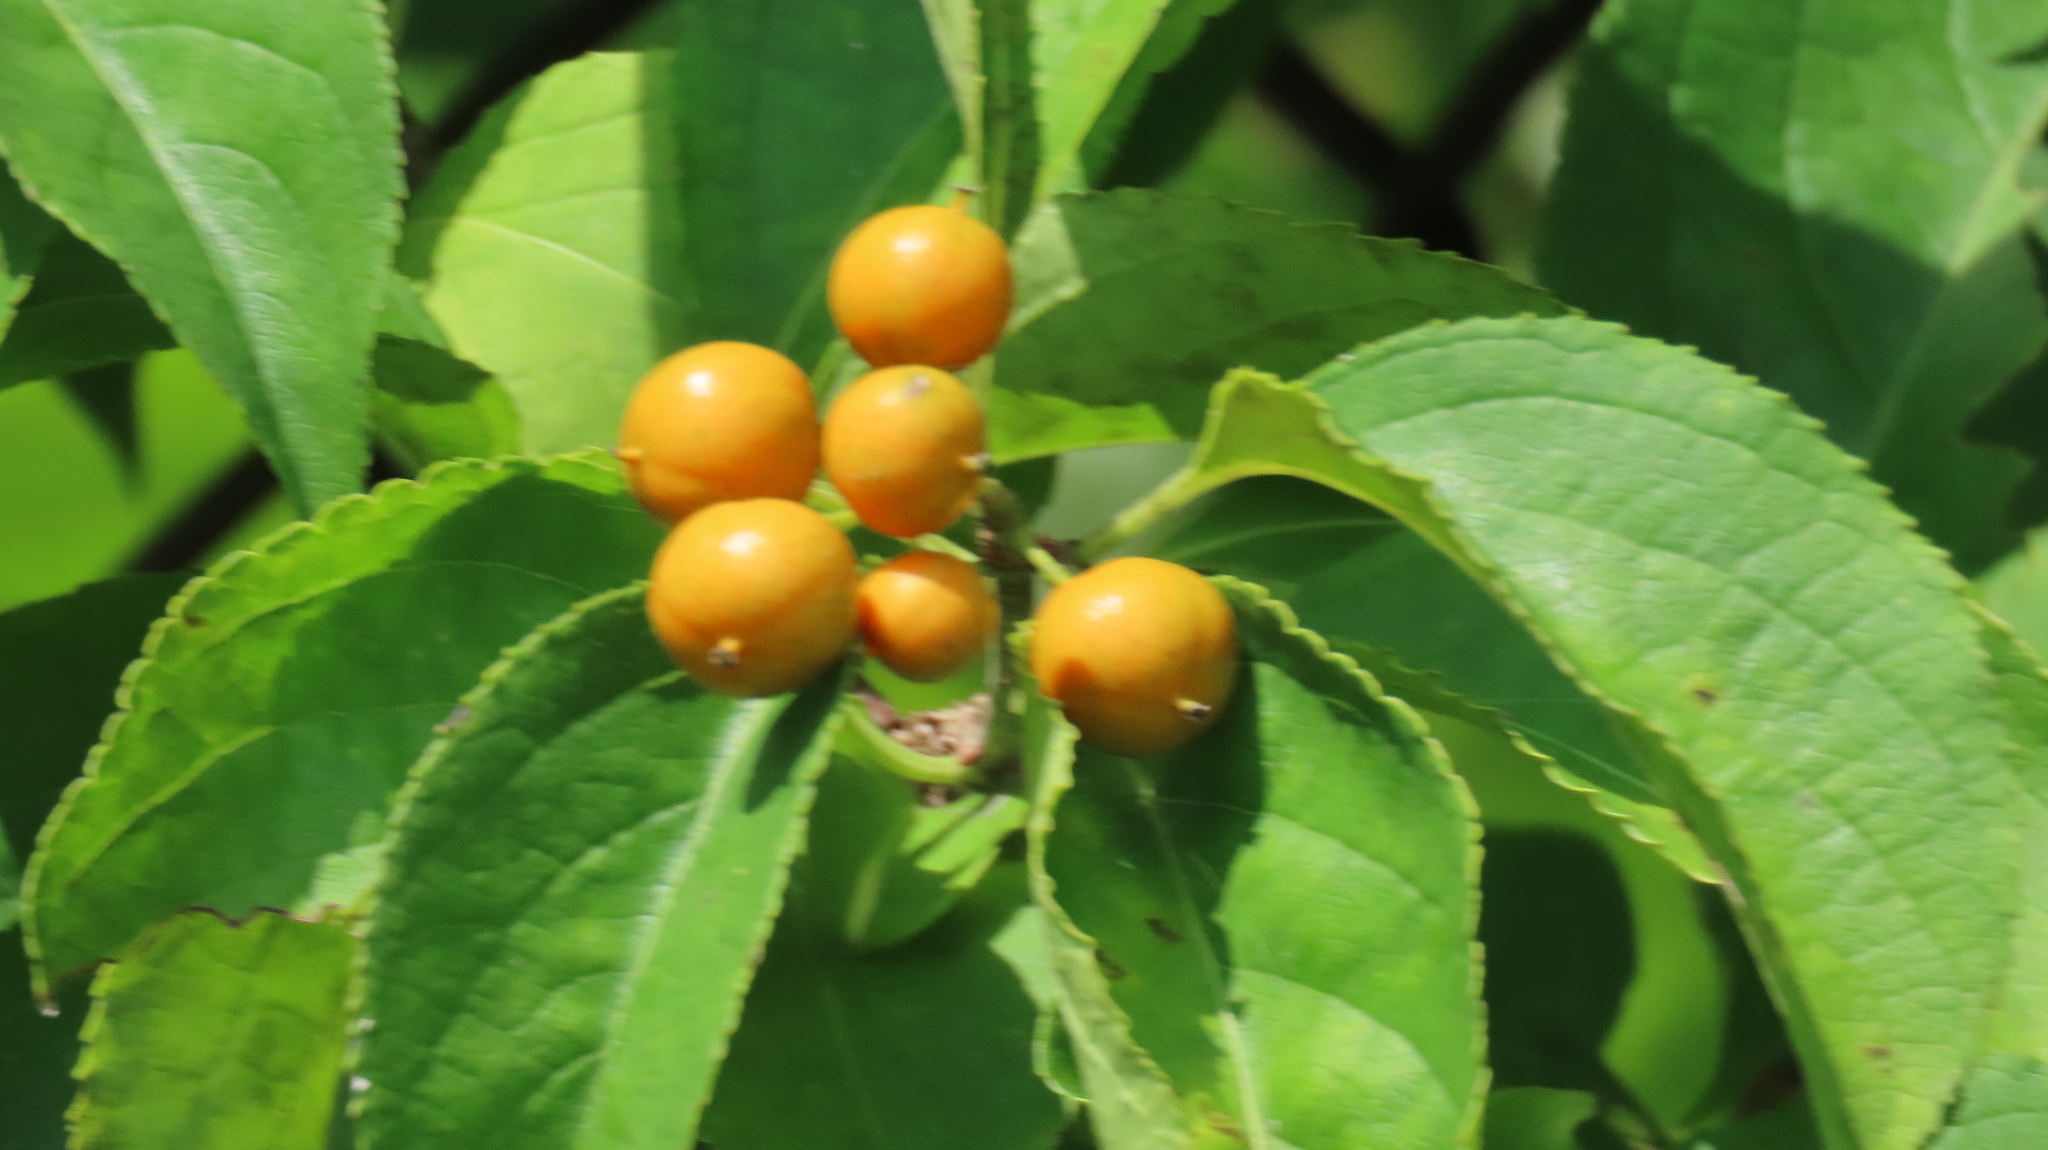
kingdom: Plantae
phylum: Tracheophyta
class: Magnoliopsida
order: Celastrales
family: Celastraceae
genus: Celastrus
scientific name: Celastrus scandens
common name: American bittersweet
